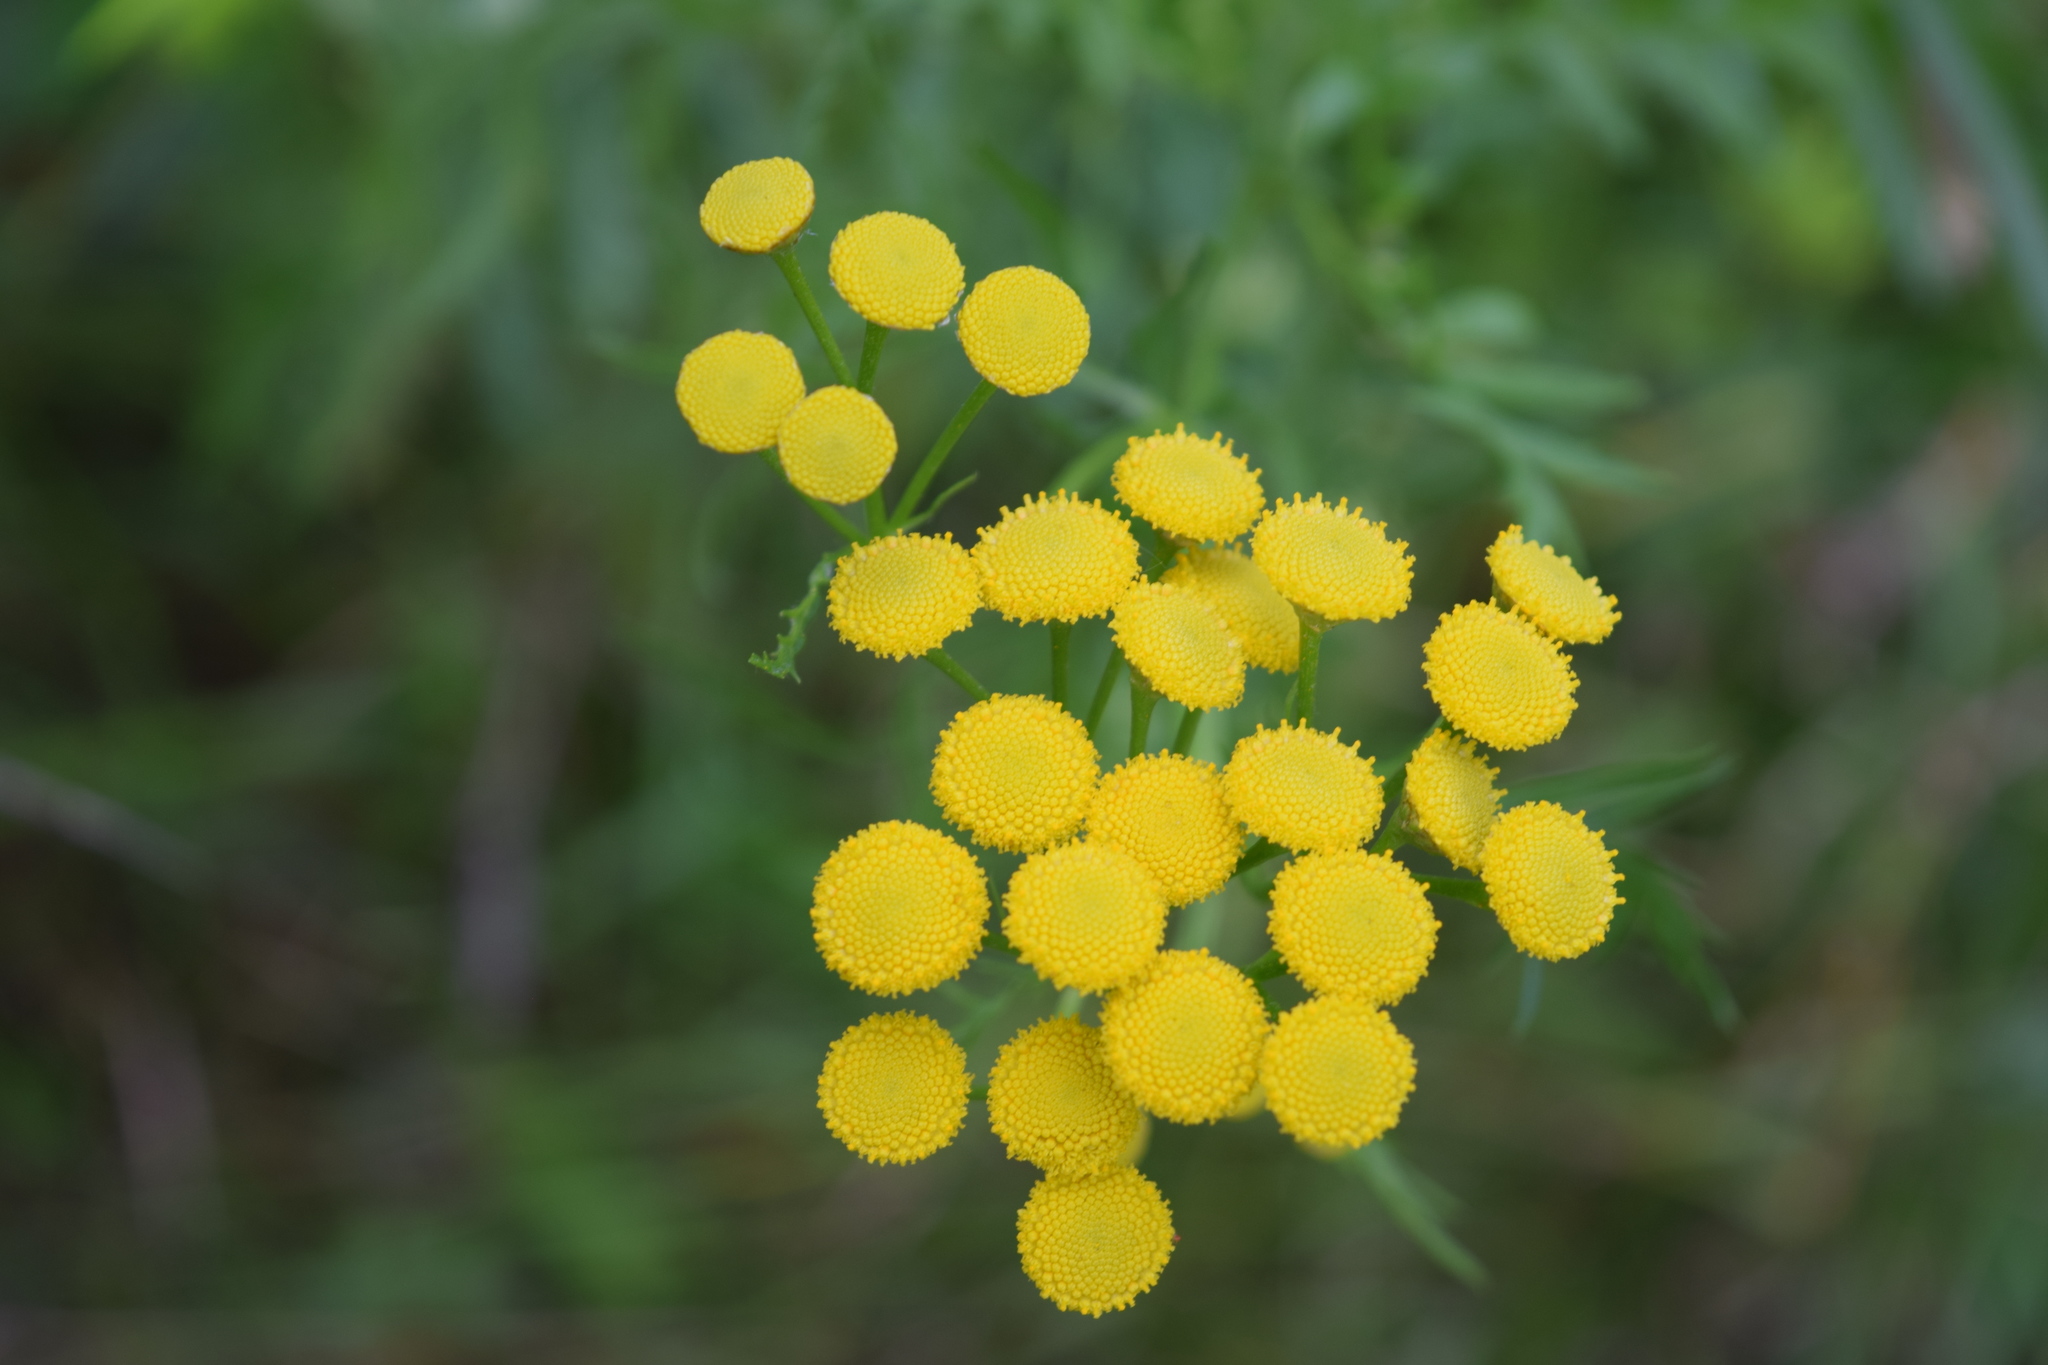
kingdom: Plantae
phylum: Tracheophyta
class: Magnoliopsida
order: Asterales
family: Asteraceae
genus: Tanacetum
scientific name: Tanacetum vulgare
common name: Common tansy
